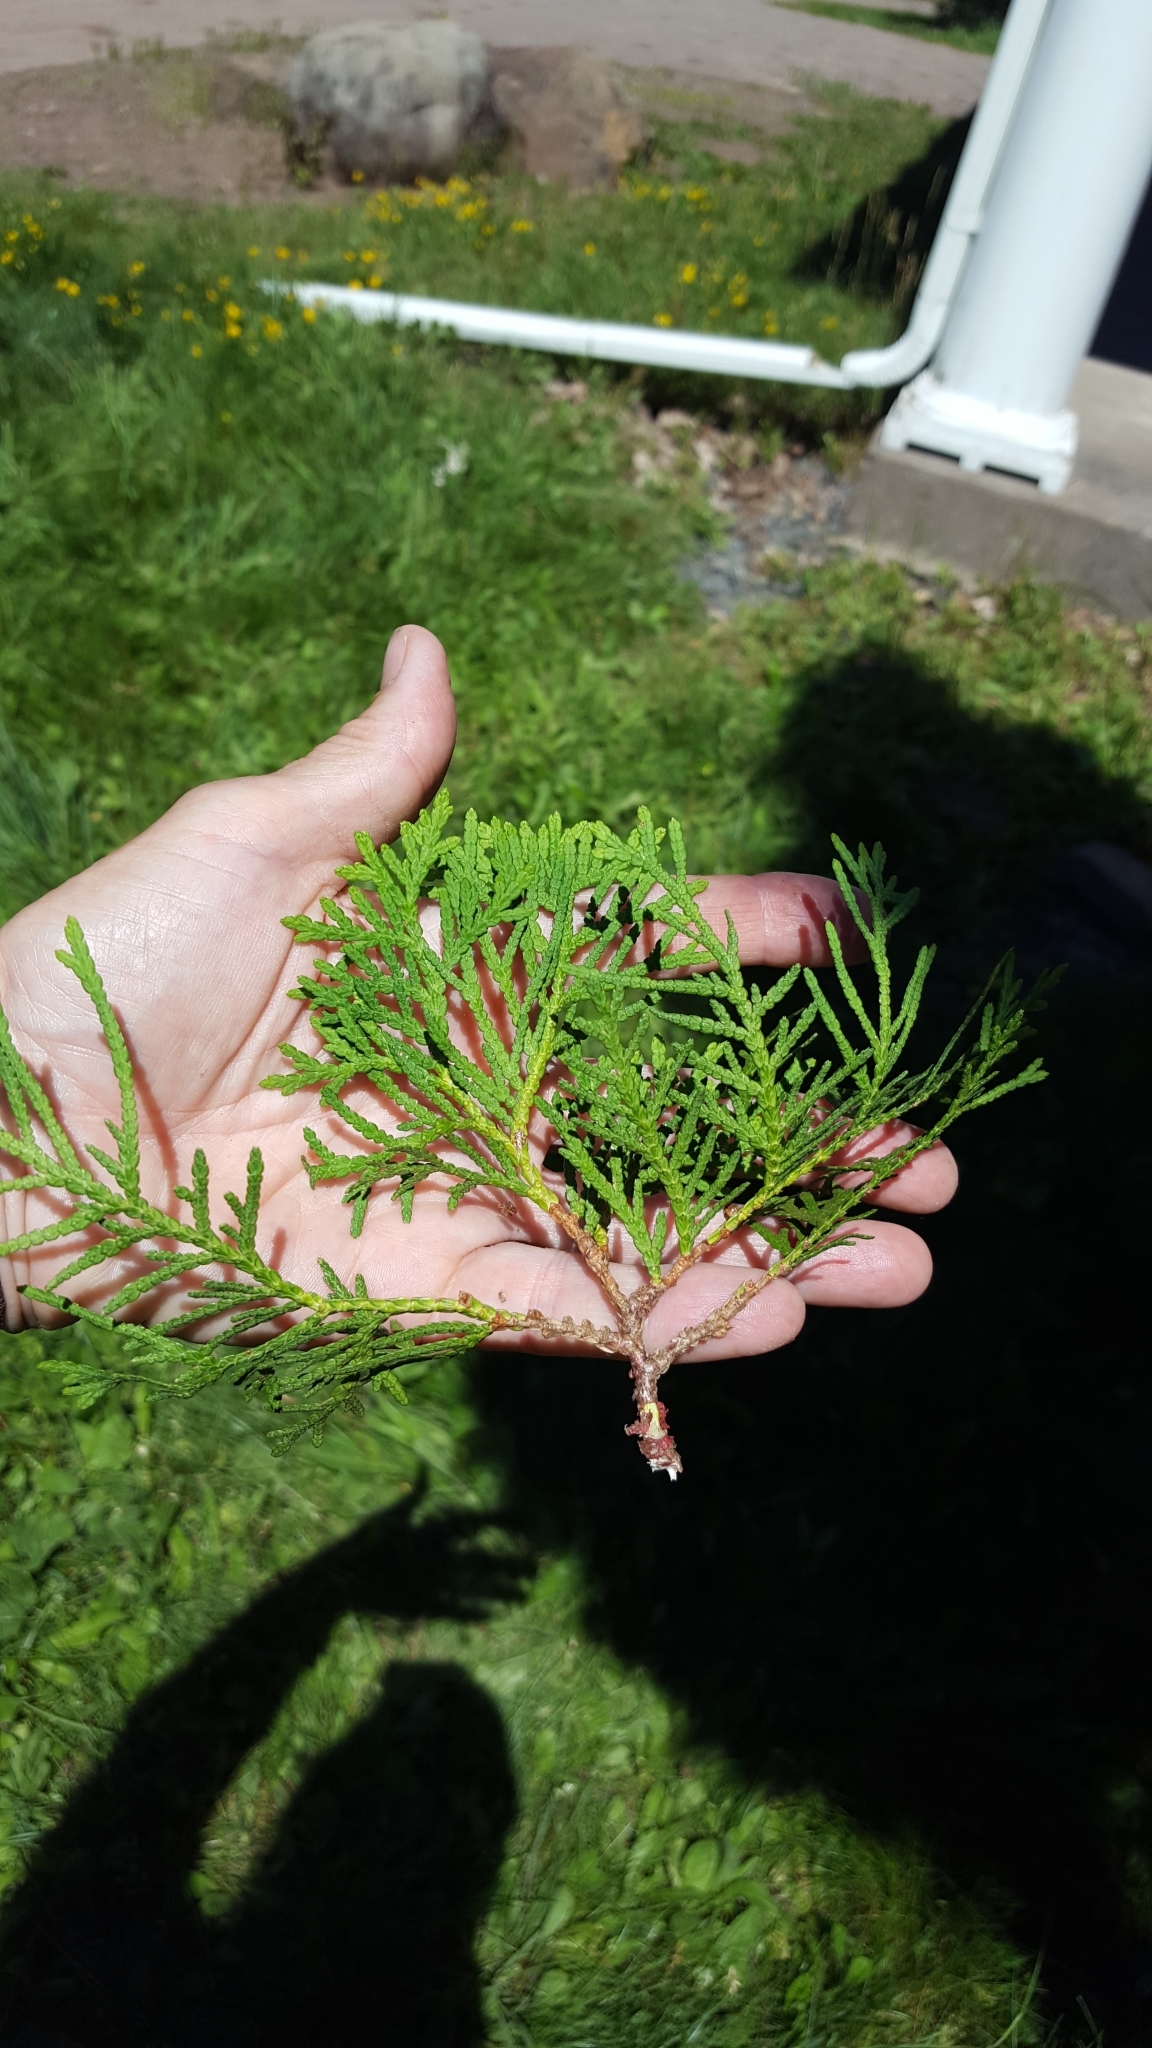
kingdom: Plantae
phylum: Tracheophyta
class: Pinopsida
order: Pinales
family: Cupressaceae
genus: Thuja
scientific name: Thuja occidentalis
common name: Northern white-cedar
